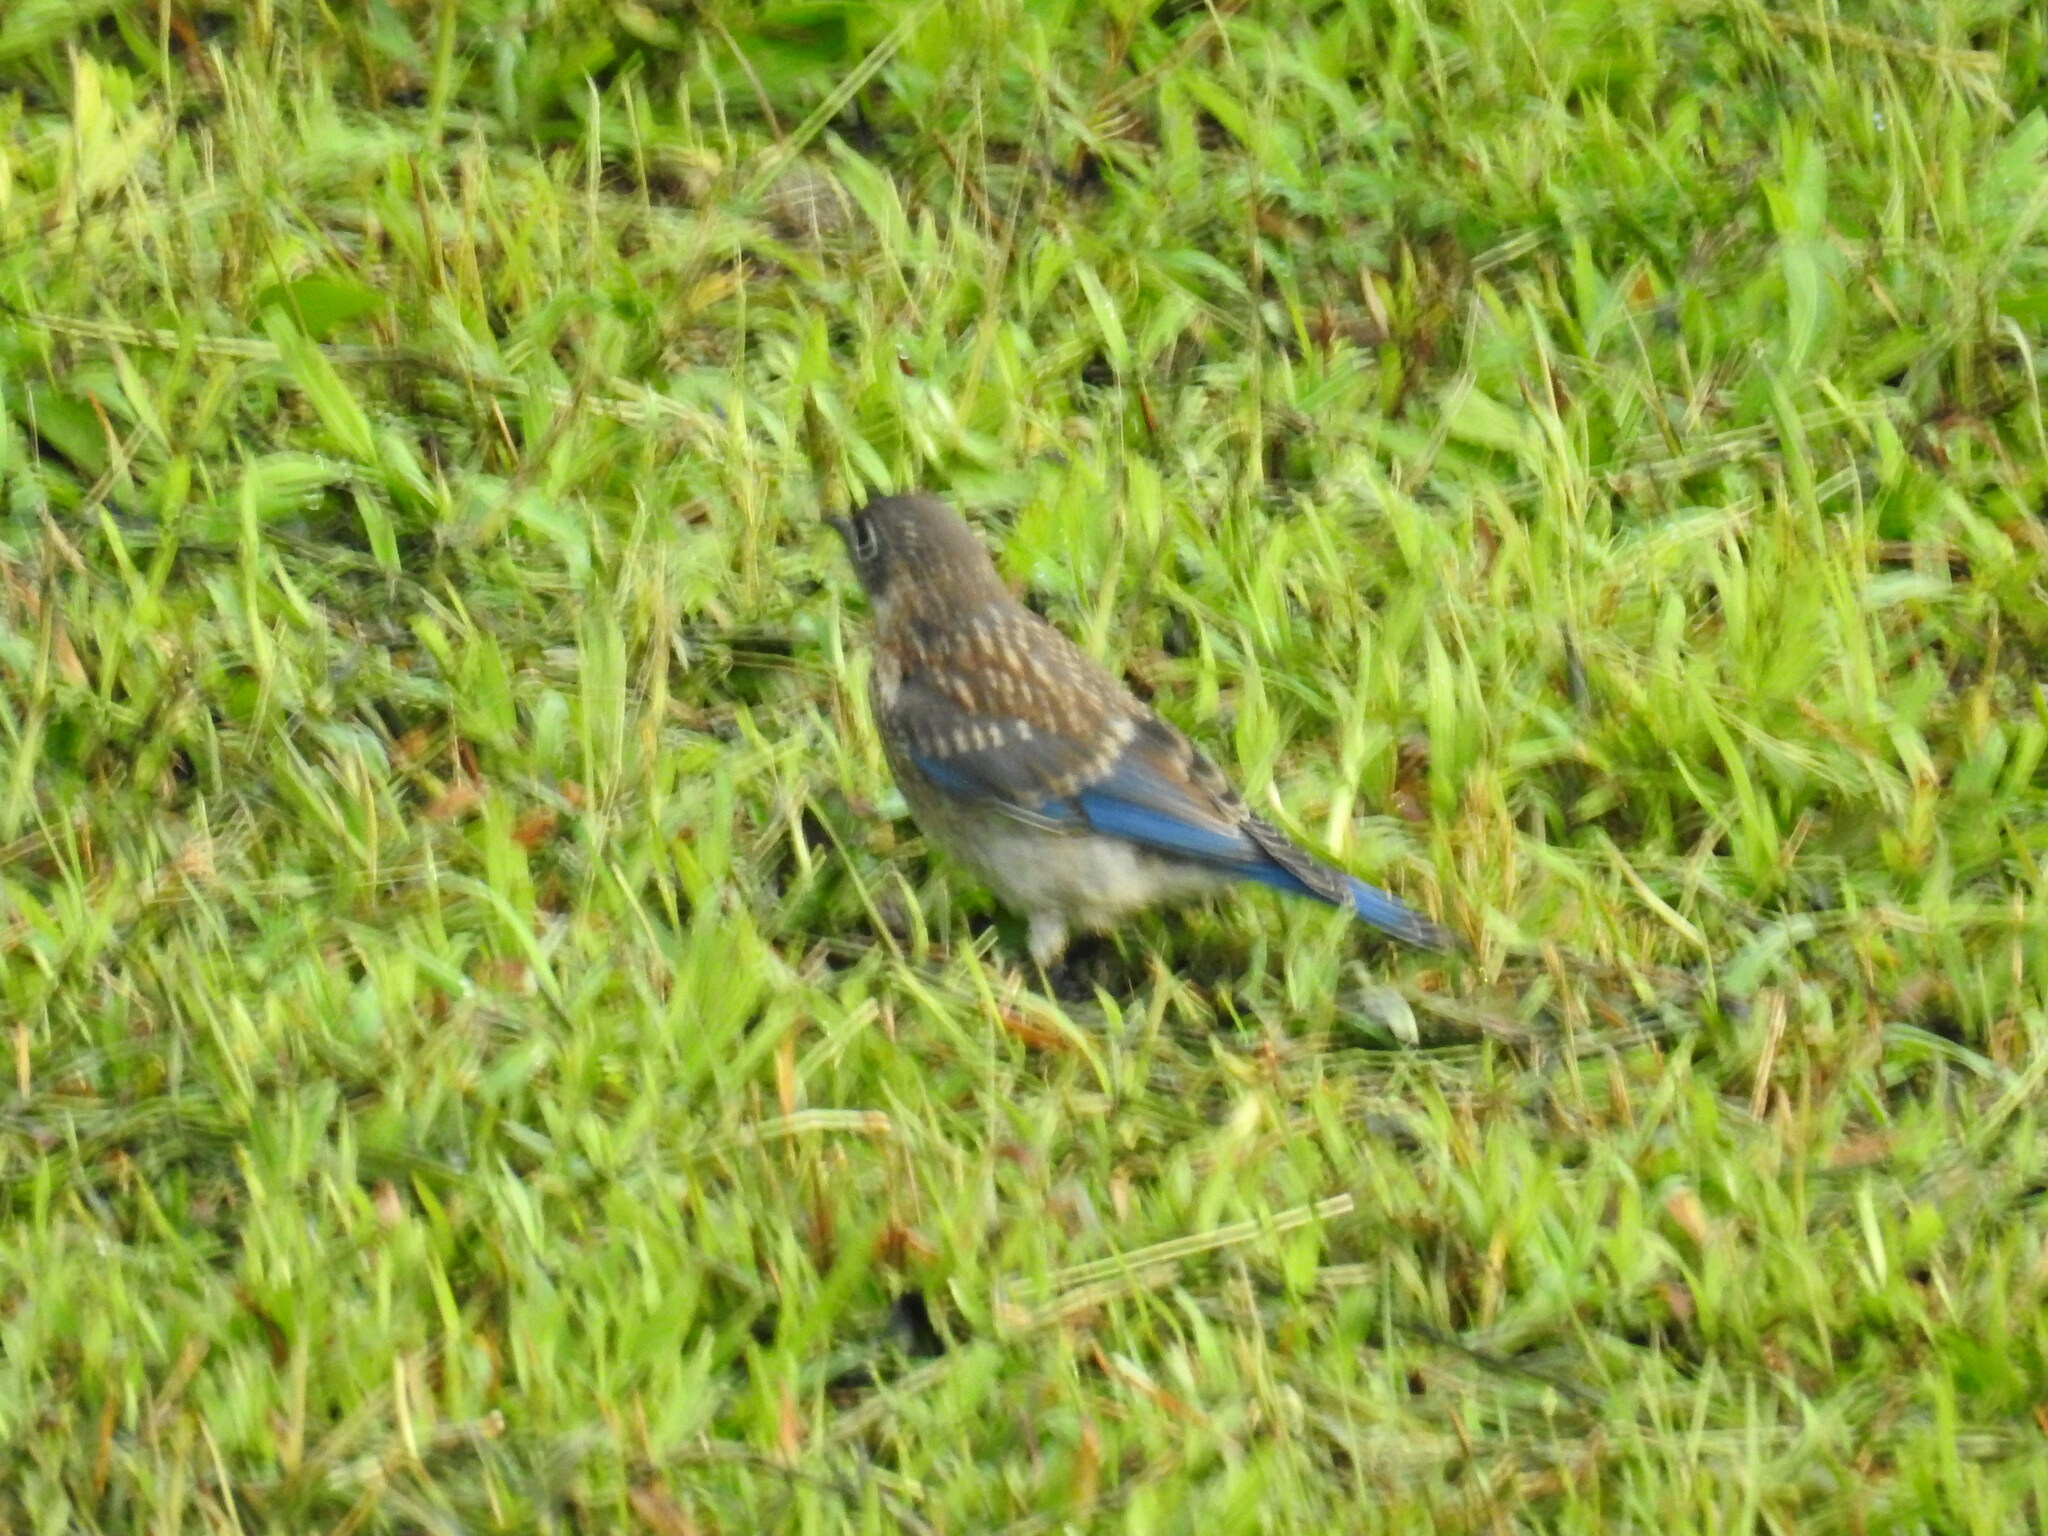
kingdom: Animalia
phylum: Chordata
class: Aves
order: Passeriformes
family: Turdidae
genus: Sialia
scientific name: Sialia sialis
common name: Eastern bluebird
